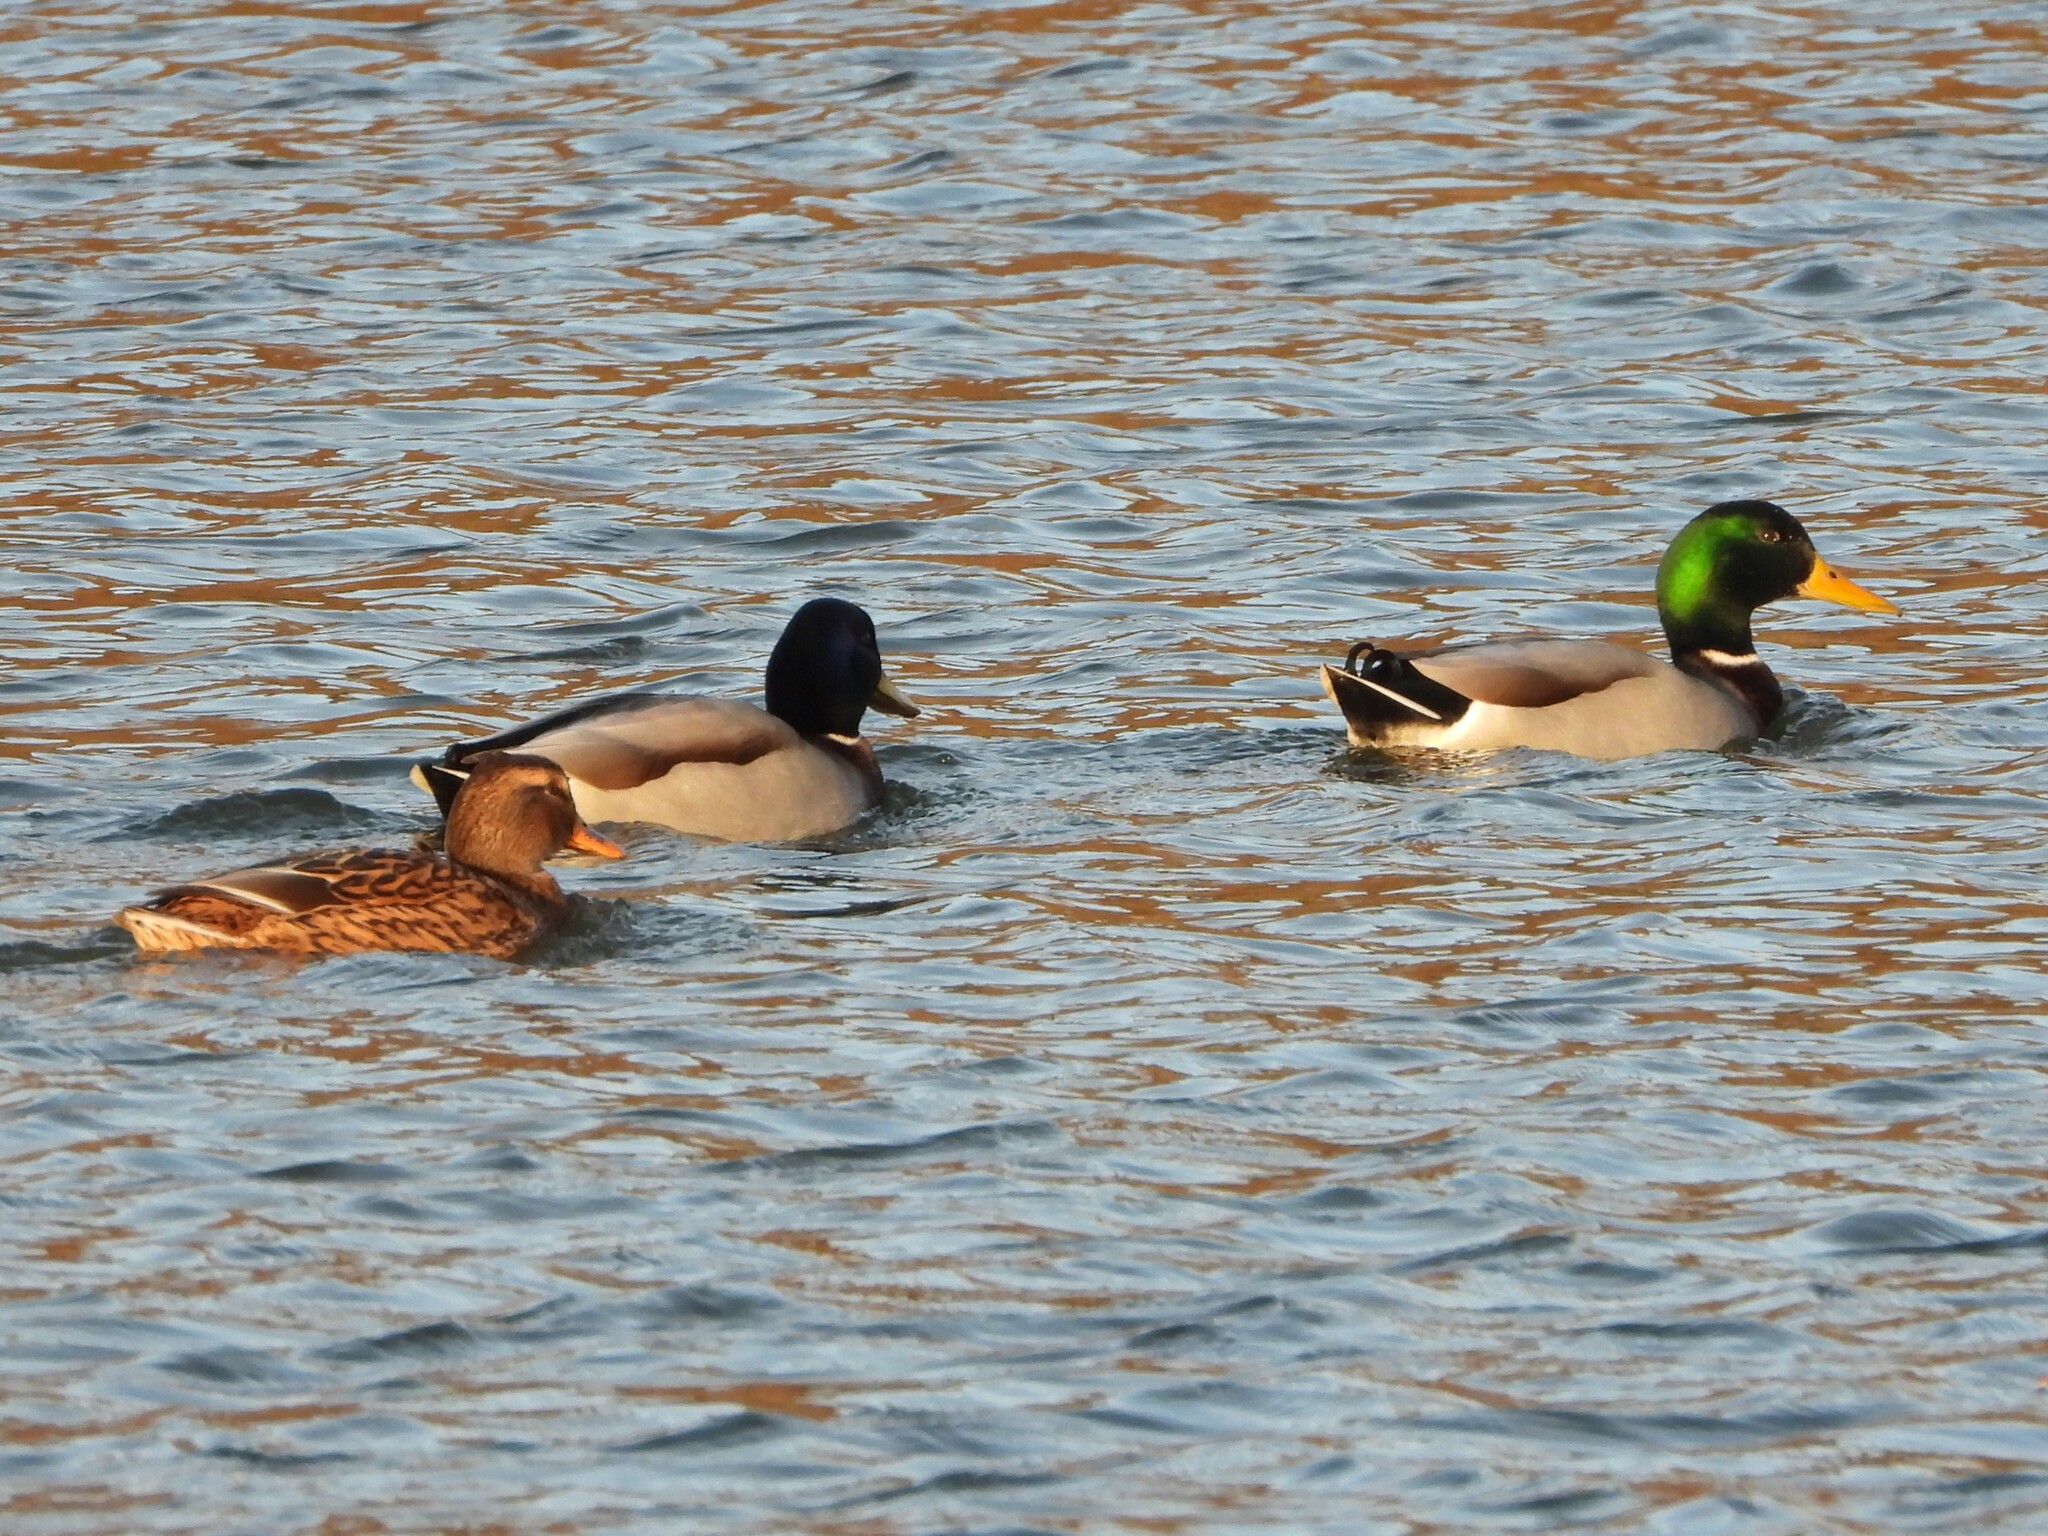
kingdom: Animalia
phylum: Chordata
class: Aves
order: Anseriformes
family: Anatidae
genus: Anas
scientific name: Anas platyrhynchos
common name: Mallard
